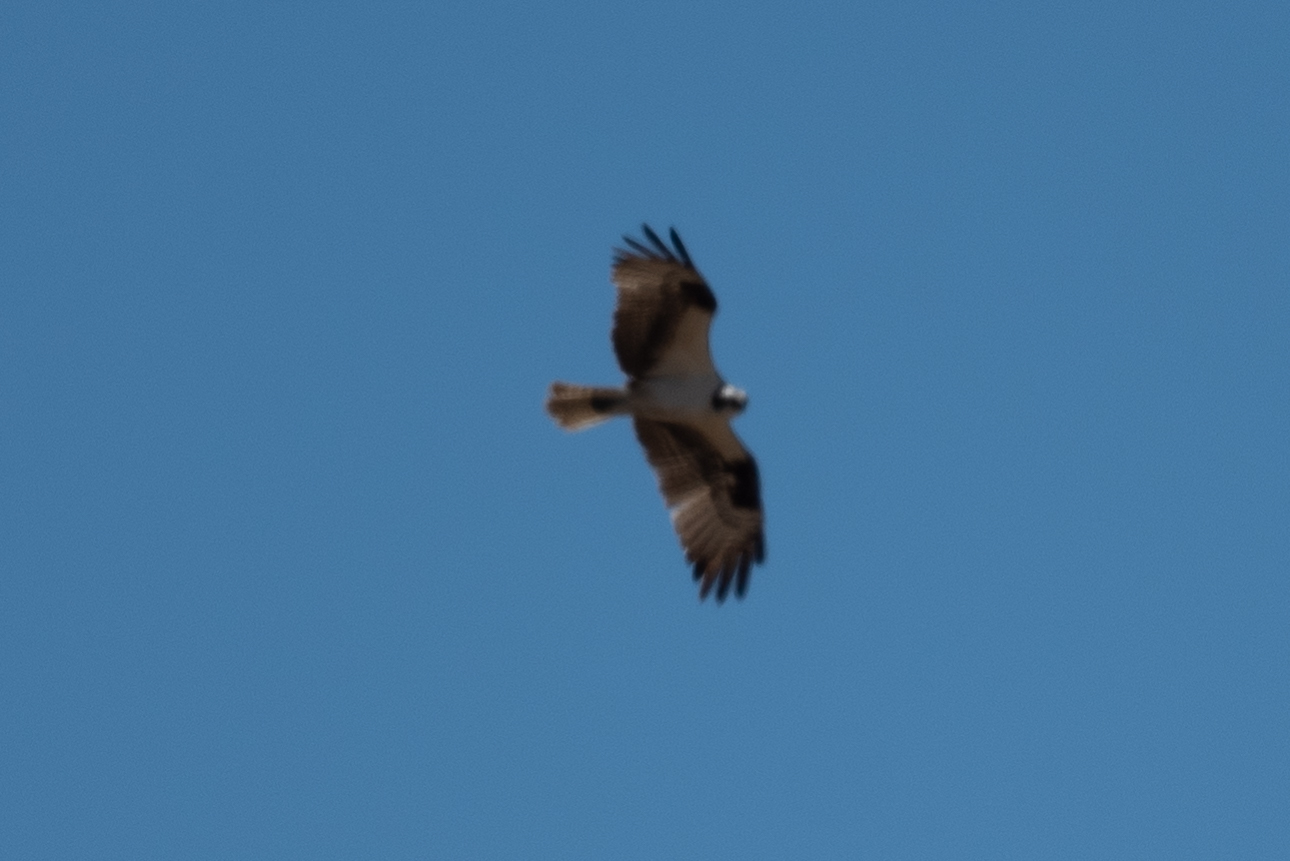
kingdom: Animalia
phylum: Chordata
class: Aves
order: Accipitriformes
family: Pandionidae
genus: Pandion
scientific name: Pandion haliaetus
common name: Osprey
